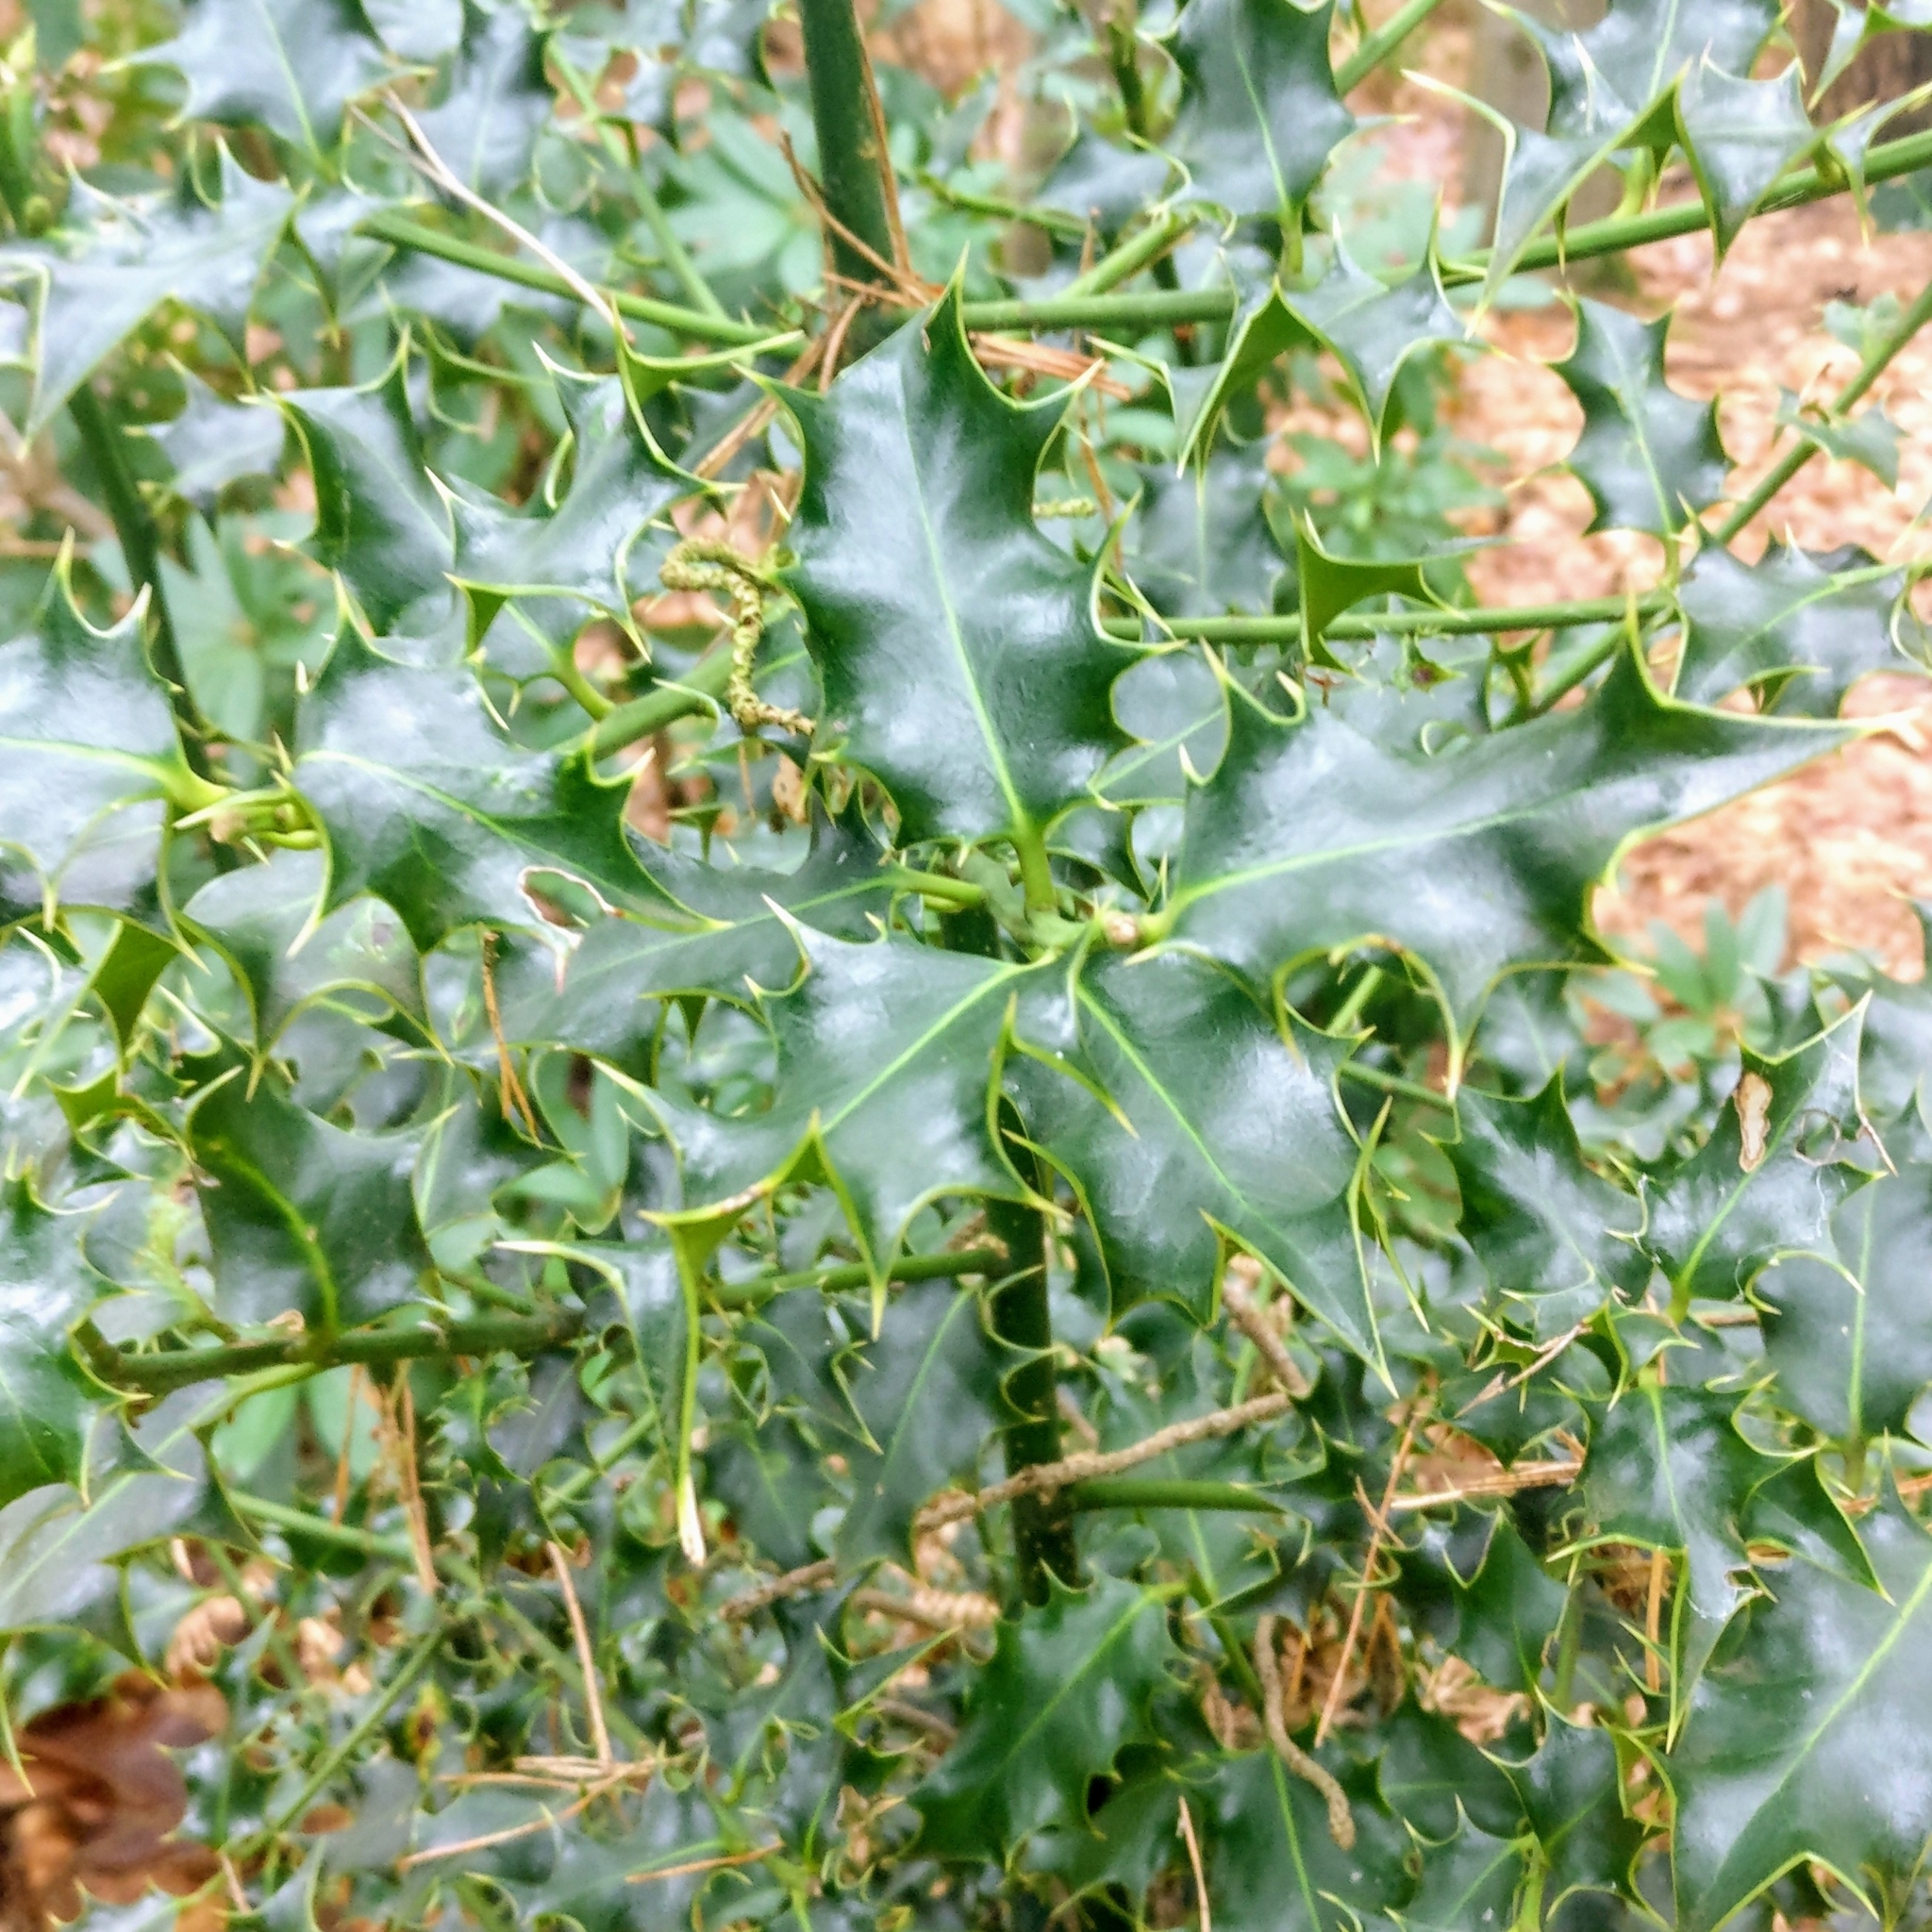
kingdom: Plantae
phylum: Tracheophyta
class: Magnoliopsida
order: Aquifoliales
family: Aquifoliaceae
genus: Ilex
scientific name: Ilex aquifolium
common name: English holly
